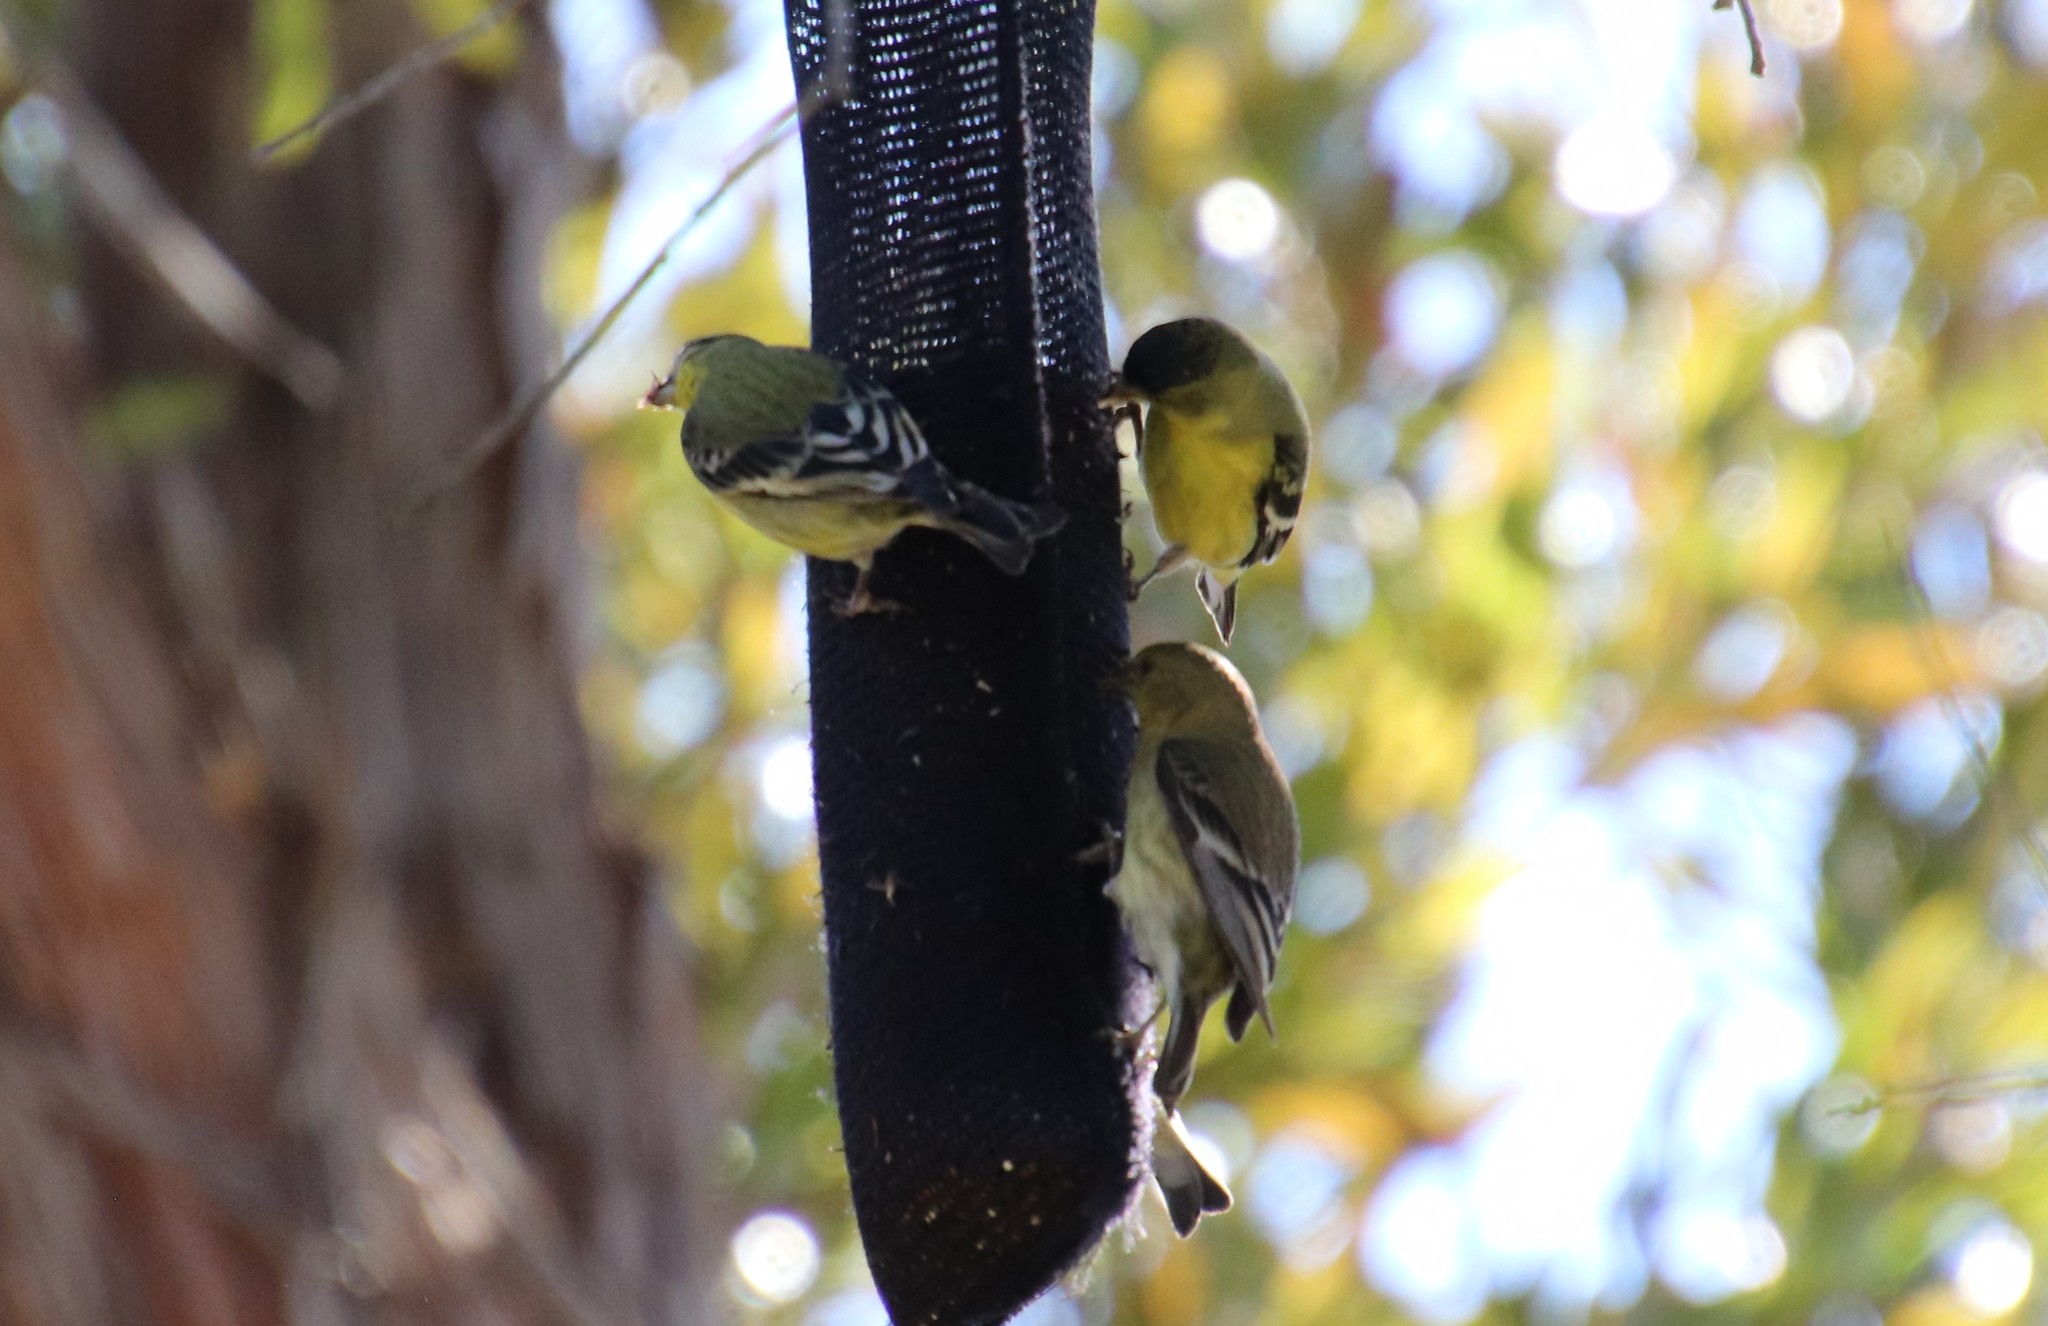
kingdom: Animalia
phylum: Chordata
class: Aves
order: Passeriformes
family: Fringillidae
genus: Spinus
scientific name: Spinus psaltria
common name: Lesser goldfinch
